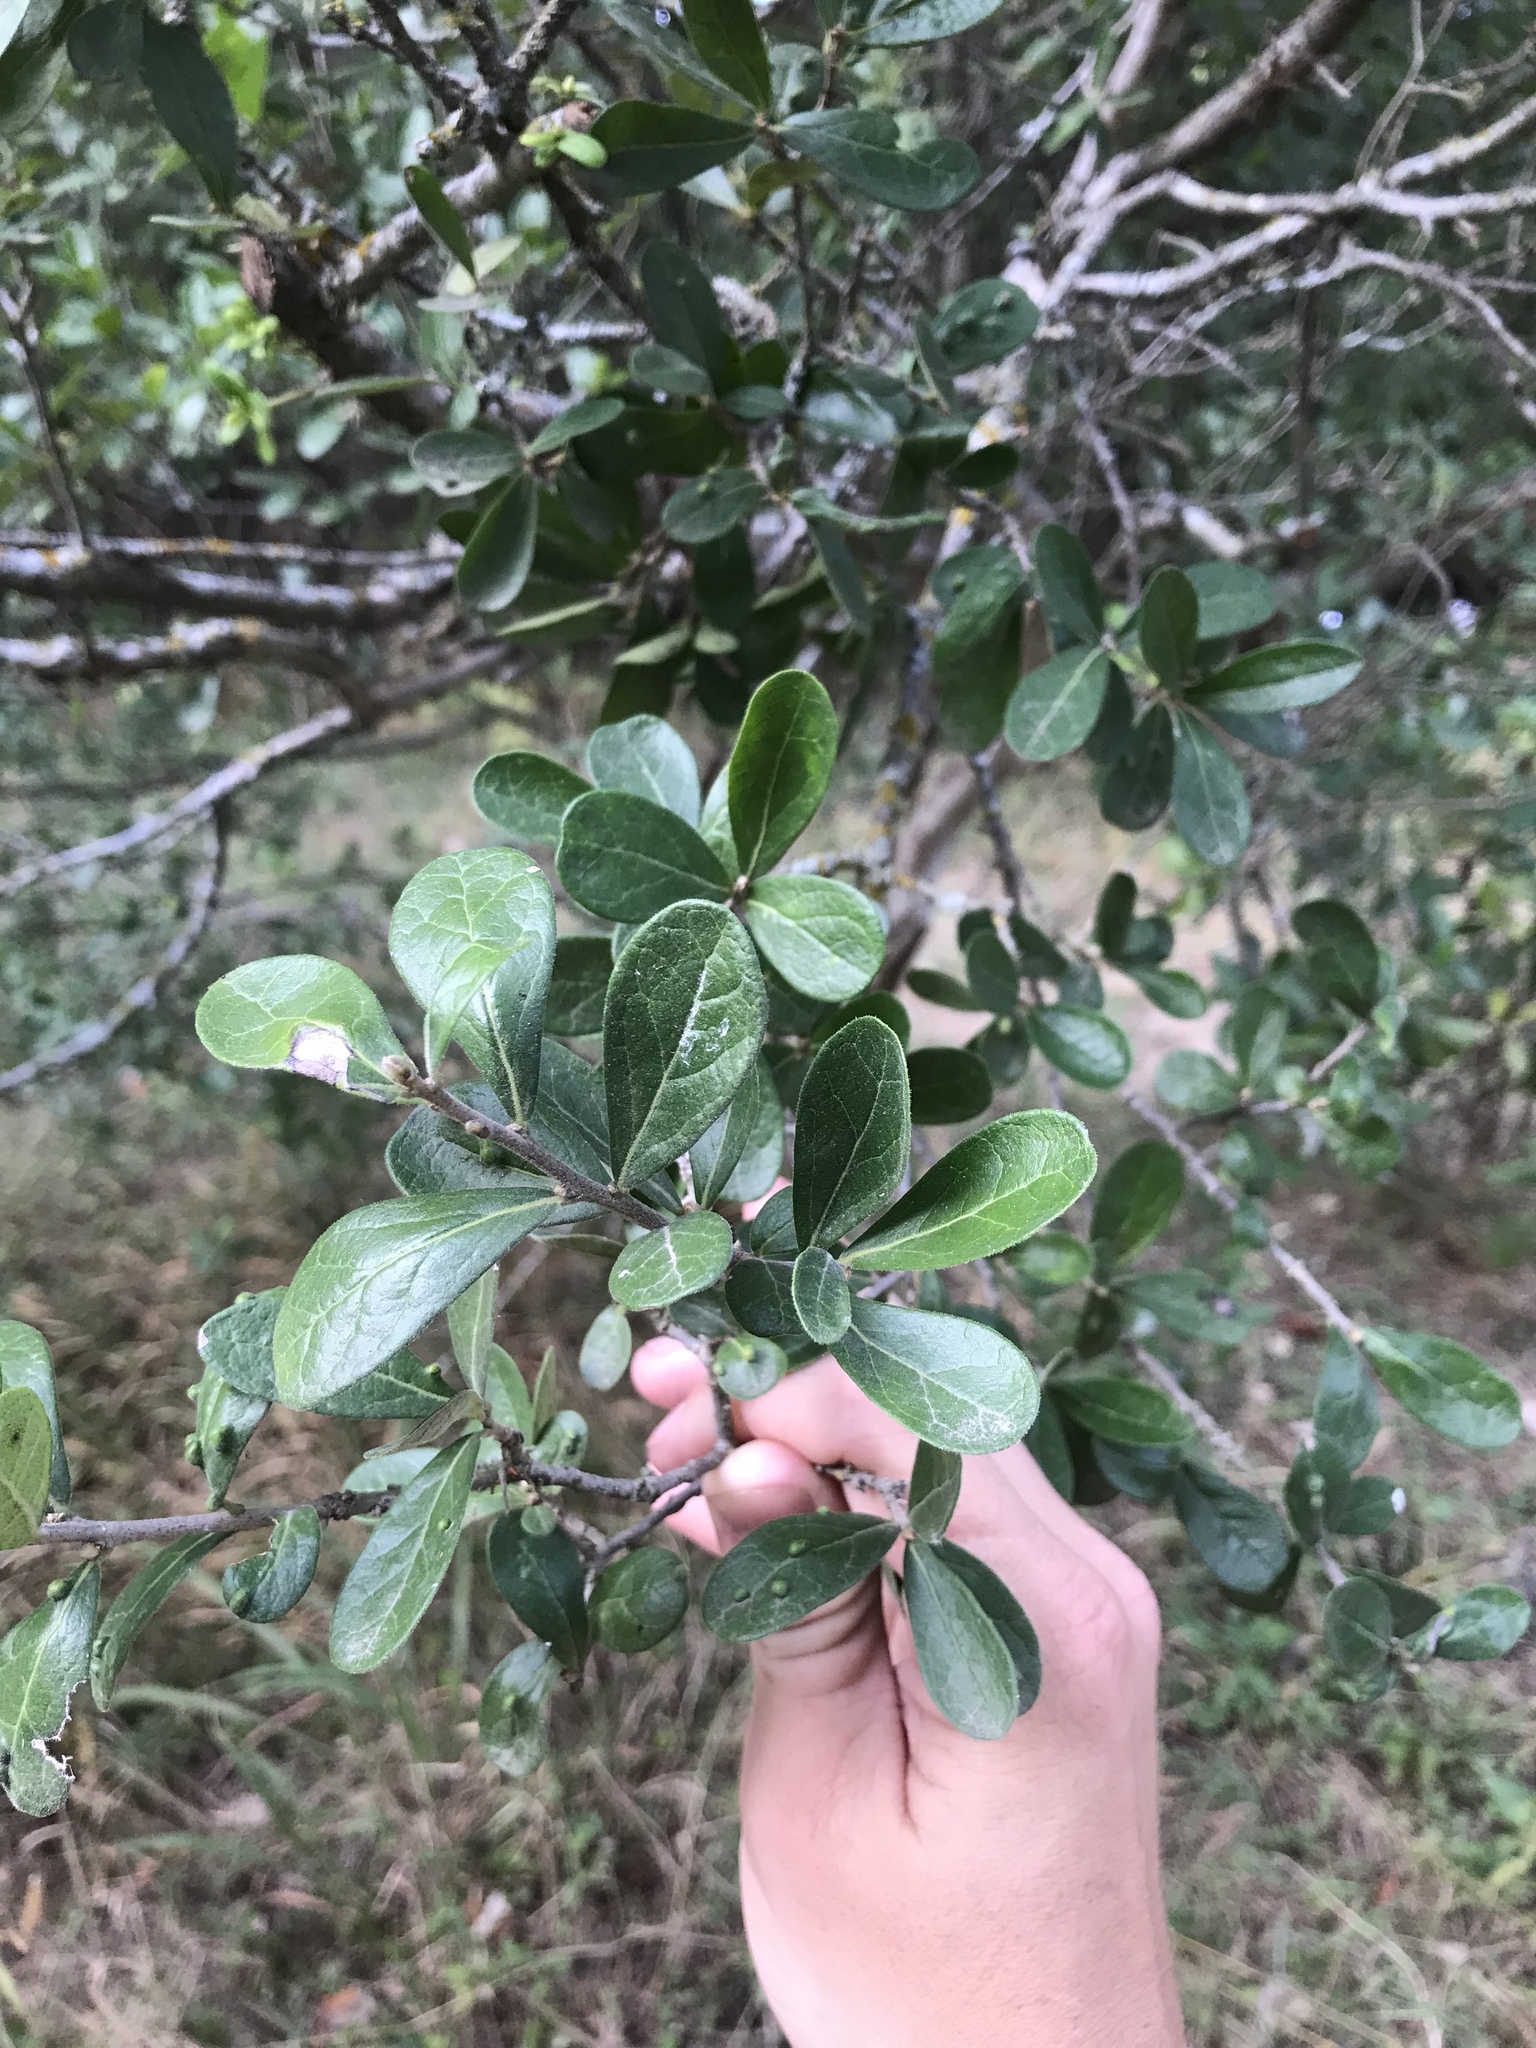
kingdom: Plantae
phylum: Tracheophyta
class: Magnoliopsida
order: Ericales
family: Ebenaceae
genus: Diospyros
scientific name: Diospyros texana
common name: Texas persimmon
